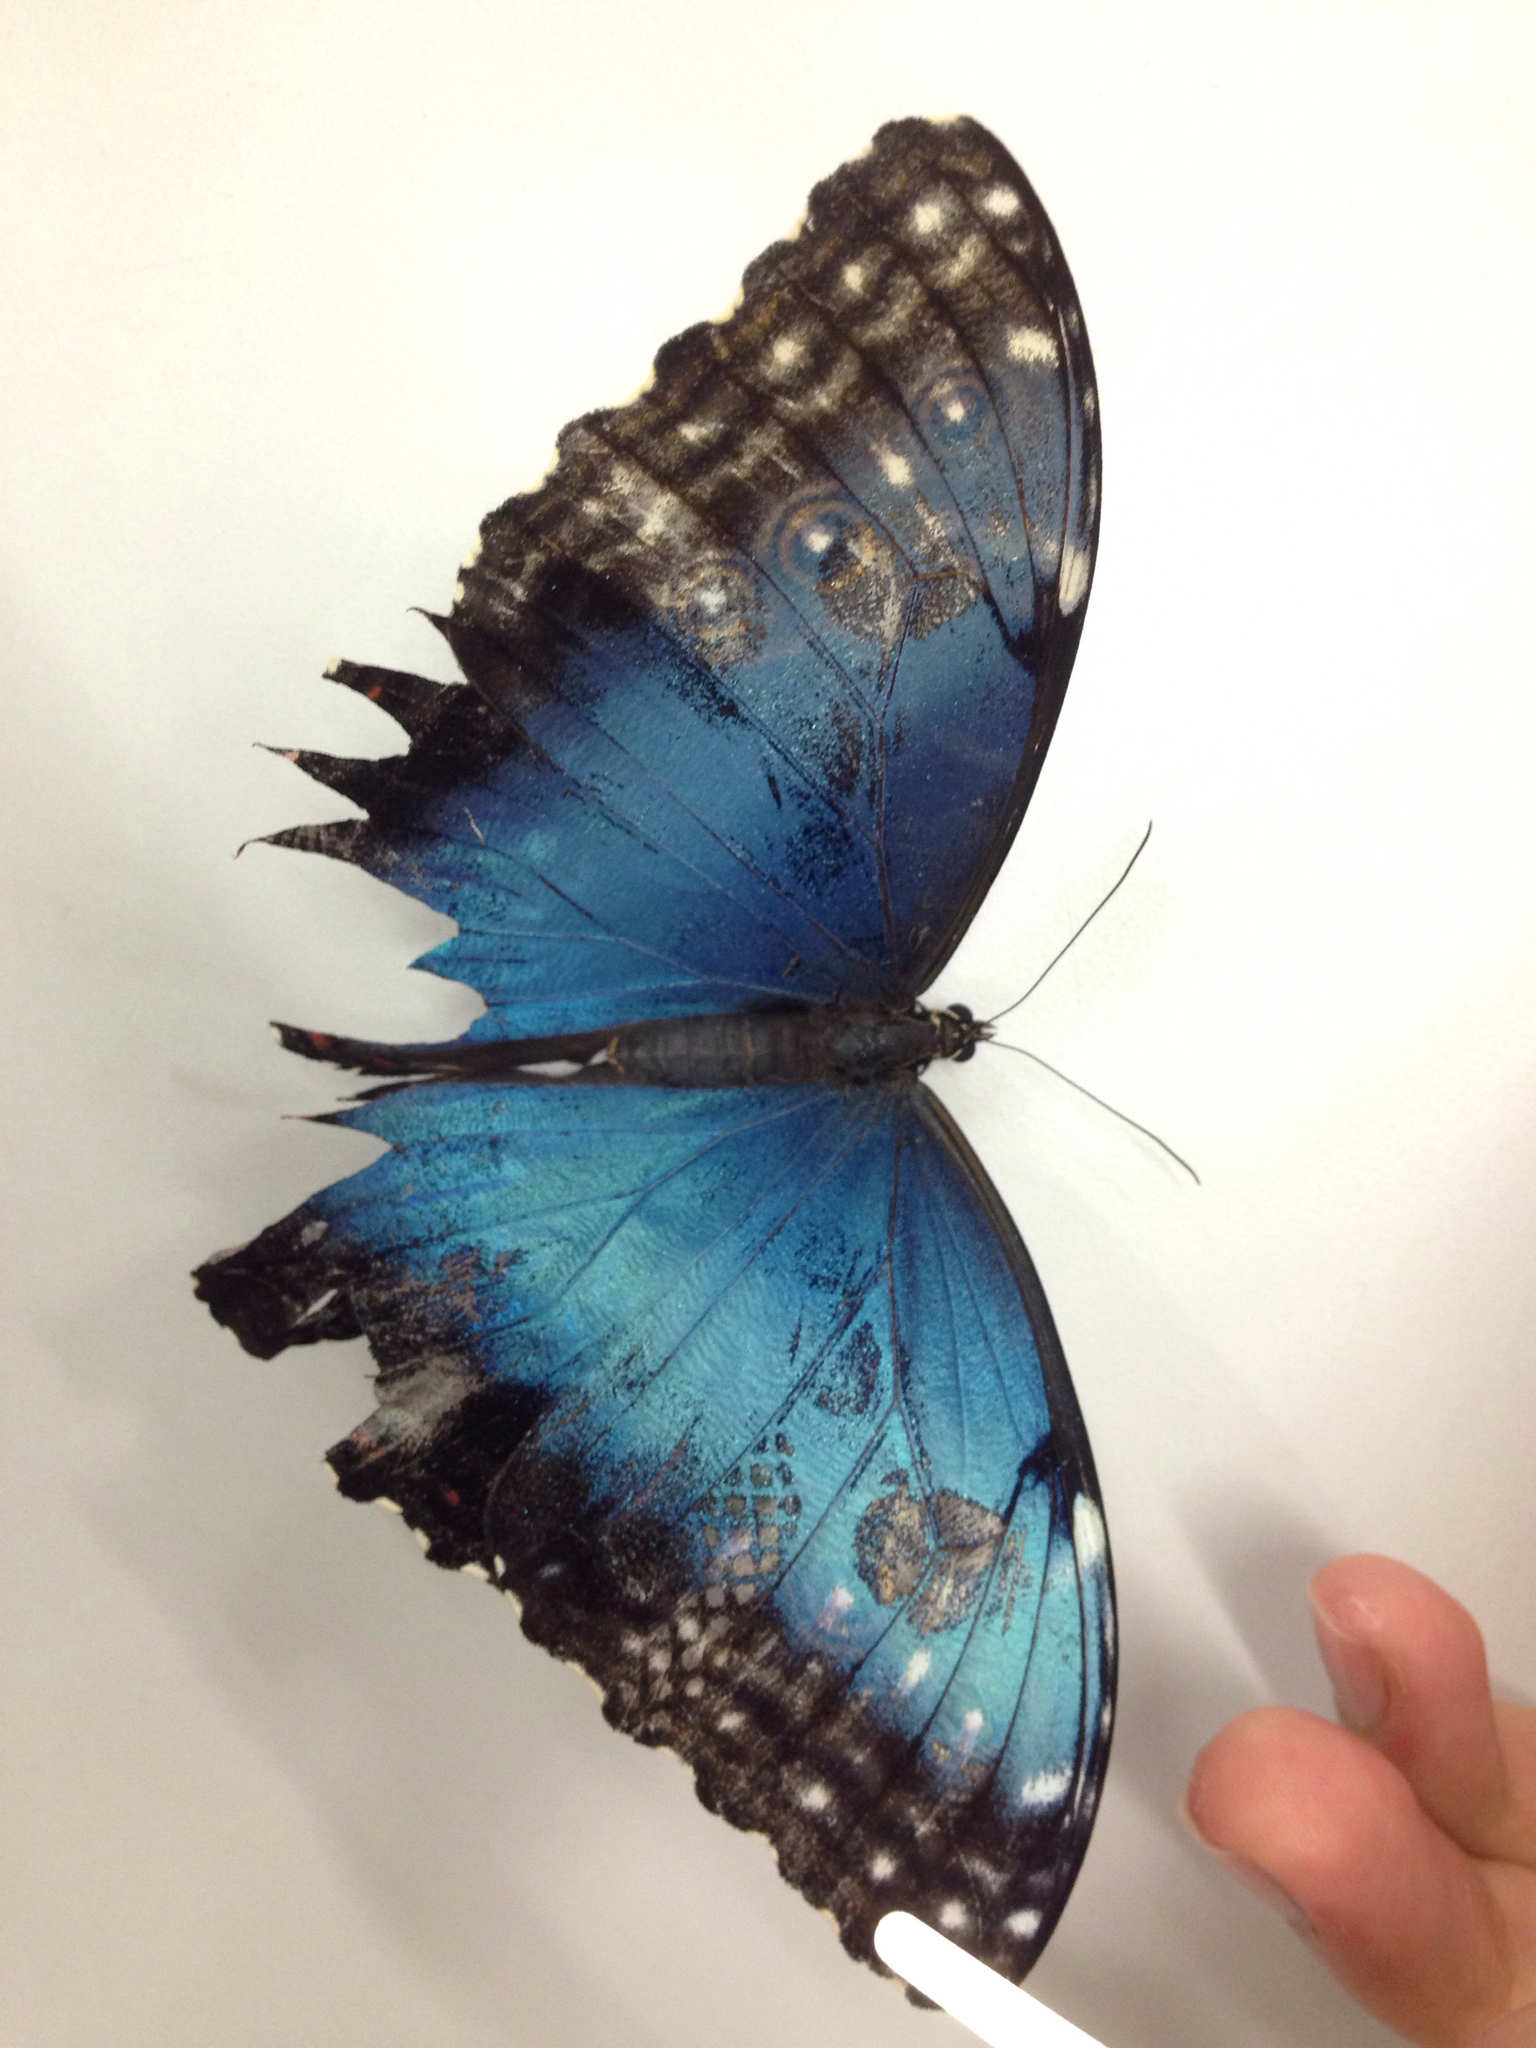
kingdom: Animalia
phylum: Arthropoda
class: Insecta
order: Lepidoptera
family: Nymphalidae
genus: Morpho
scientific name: Morpho helenor
